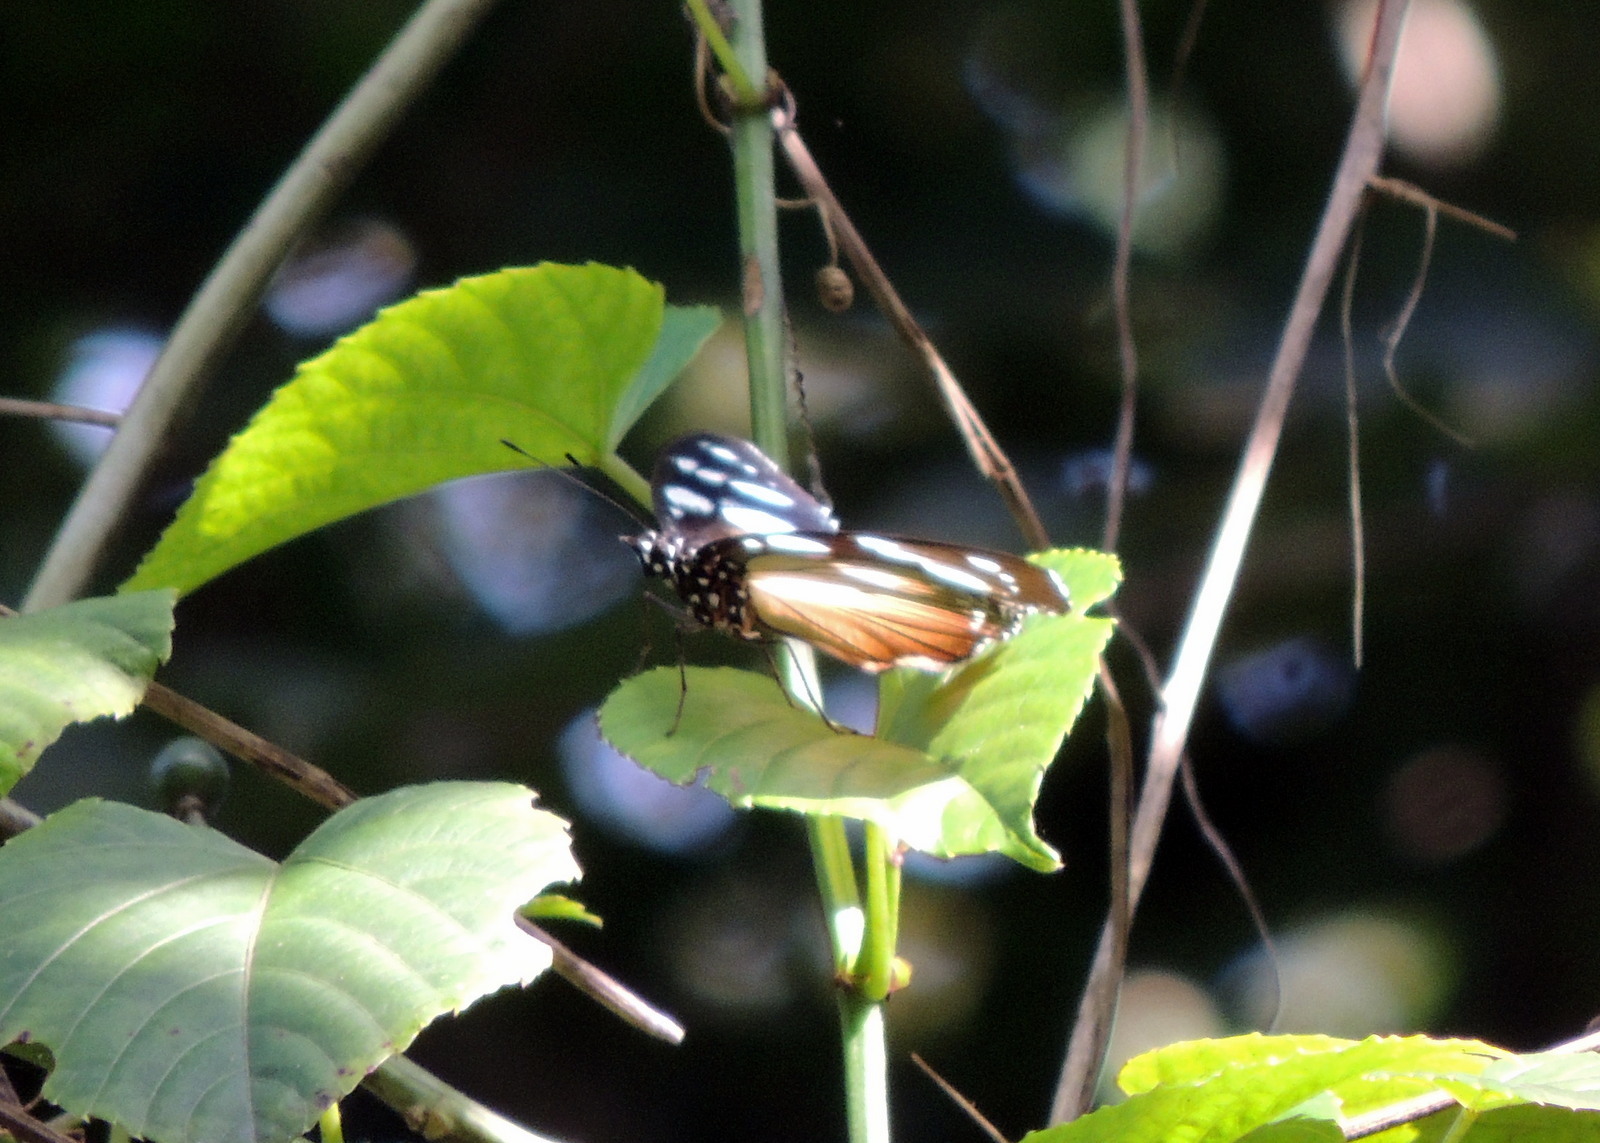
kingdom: Animalia
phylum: Arthropoda
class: Insecta
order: Lepidoptera
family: Nymphalidae
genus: Hypolimnas
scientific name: Hypolimnas dubius
